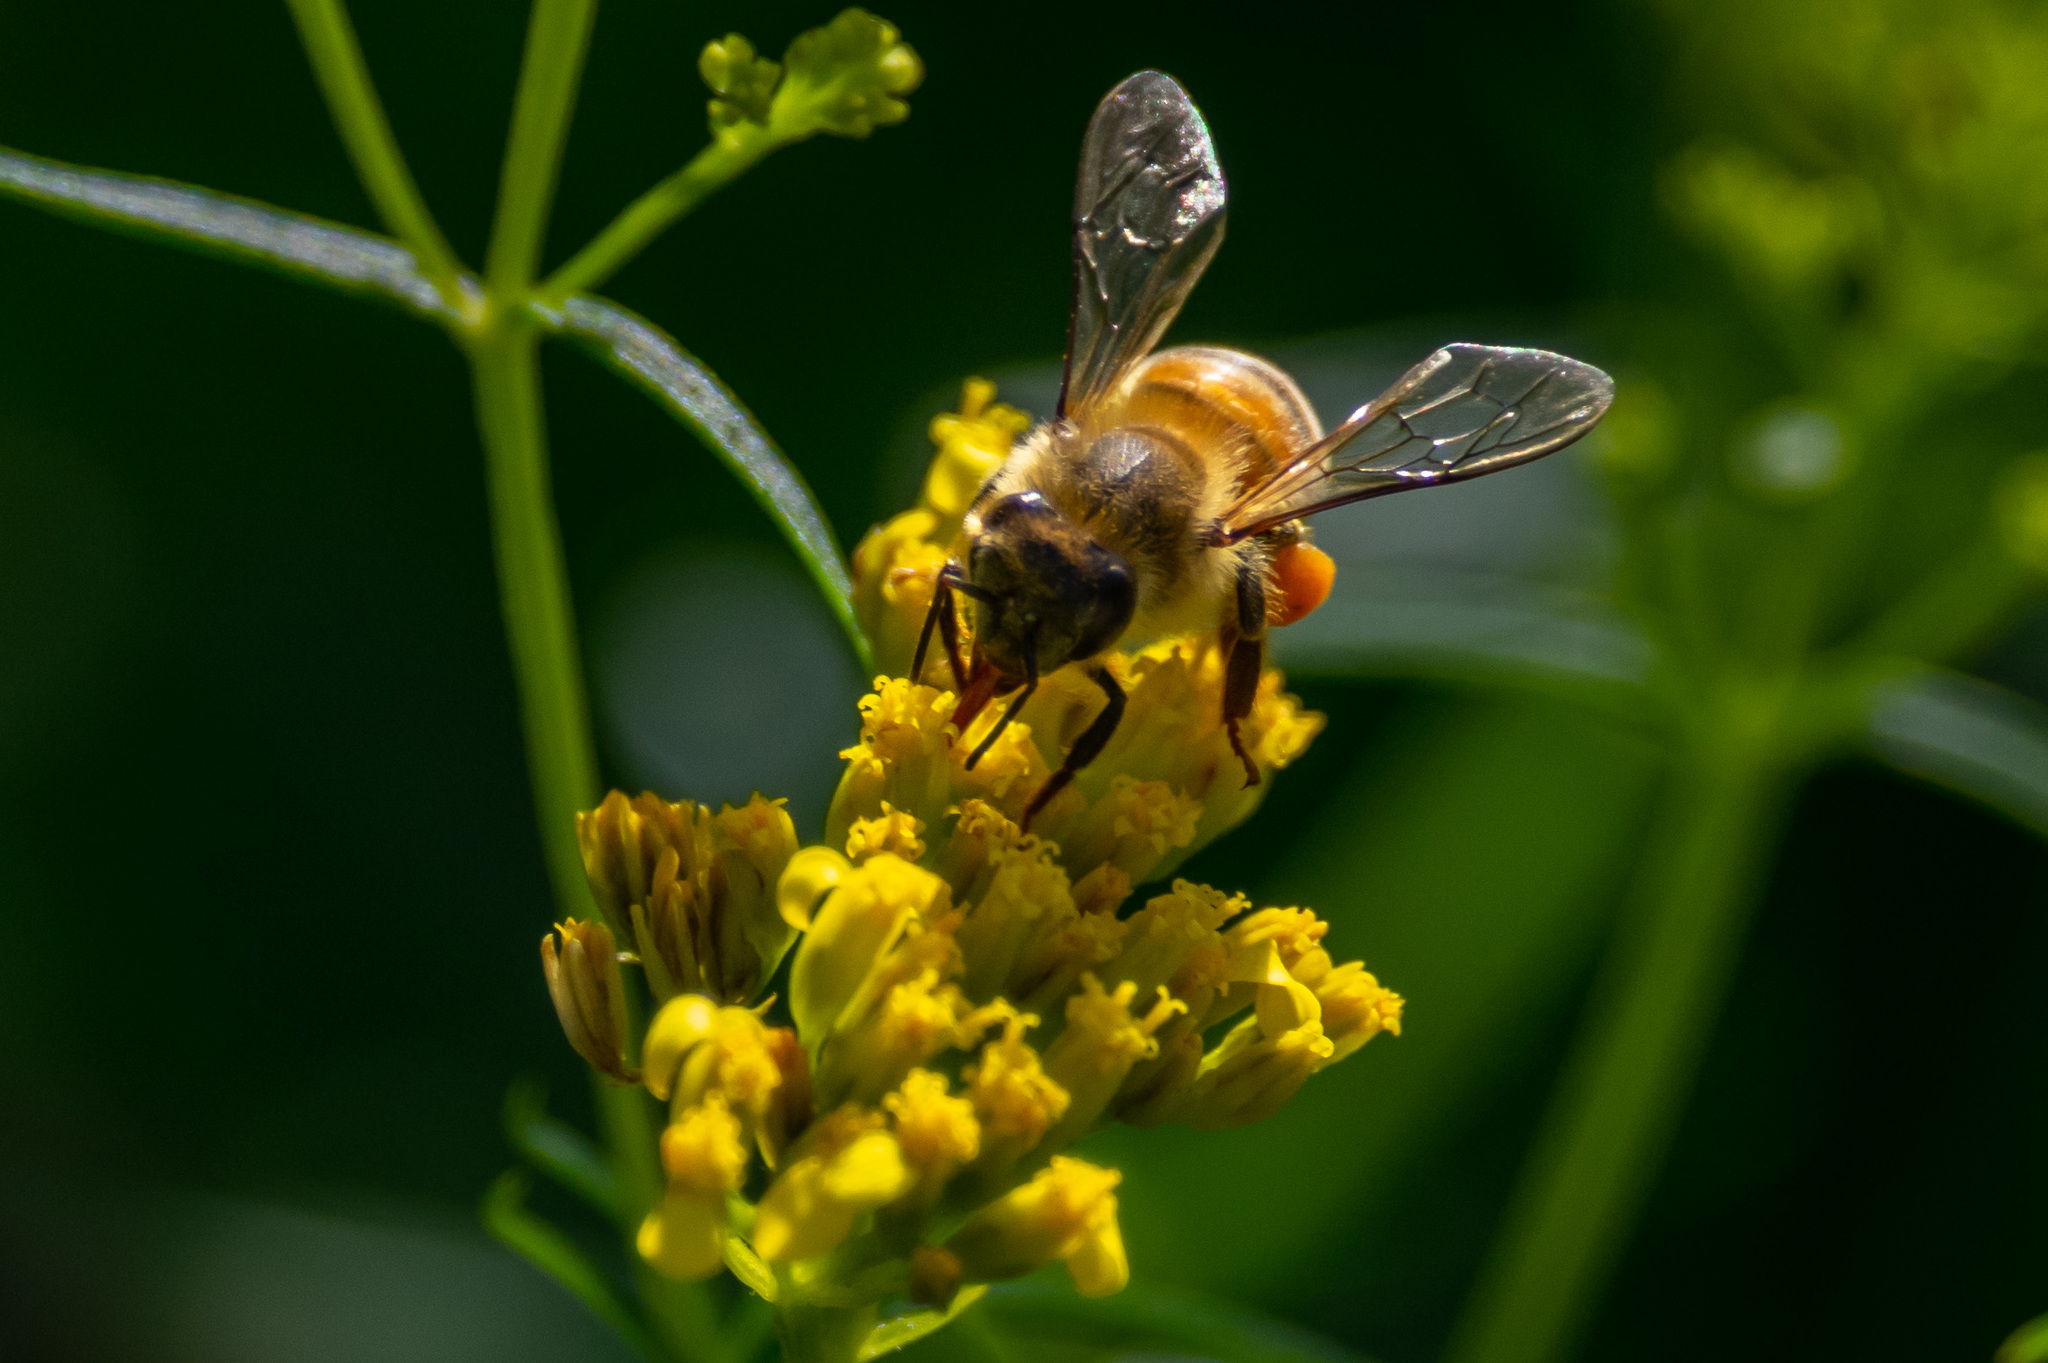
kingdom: Animalia
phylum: Arthropoda
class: Insecta
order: Hymenoptera
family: Apidae
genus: Apis
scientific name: Apis mellifera
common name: Honey bee
